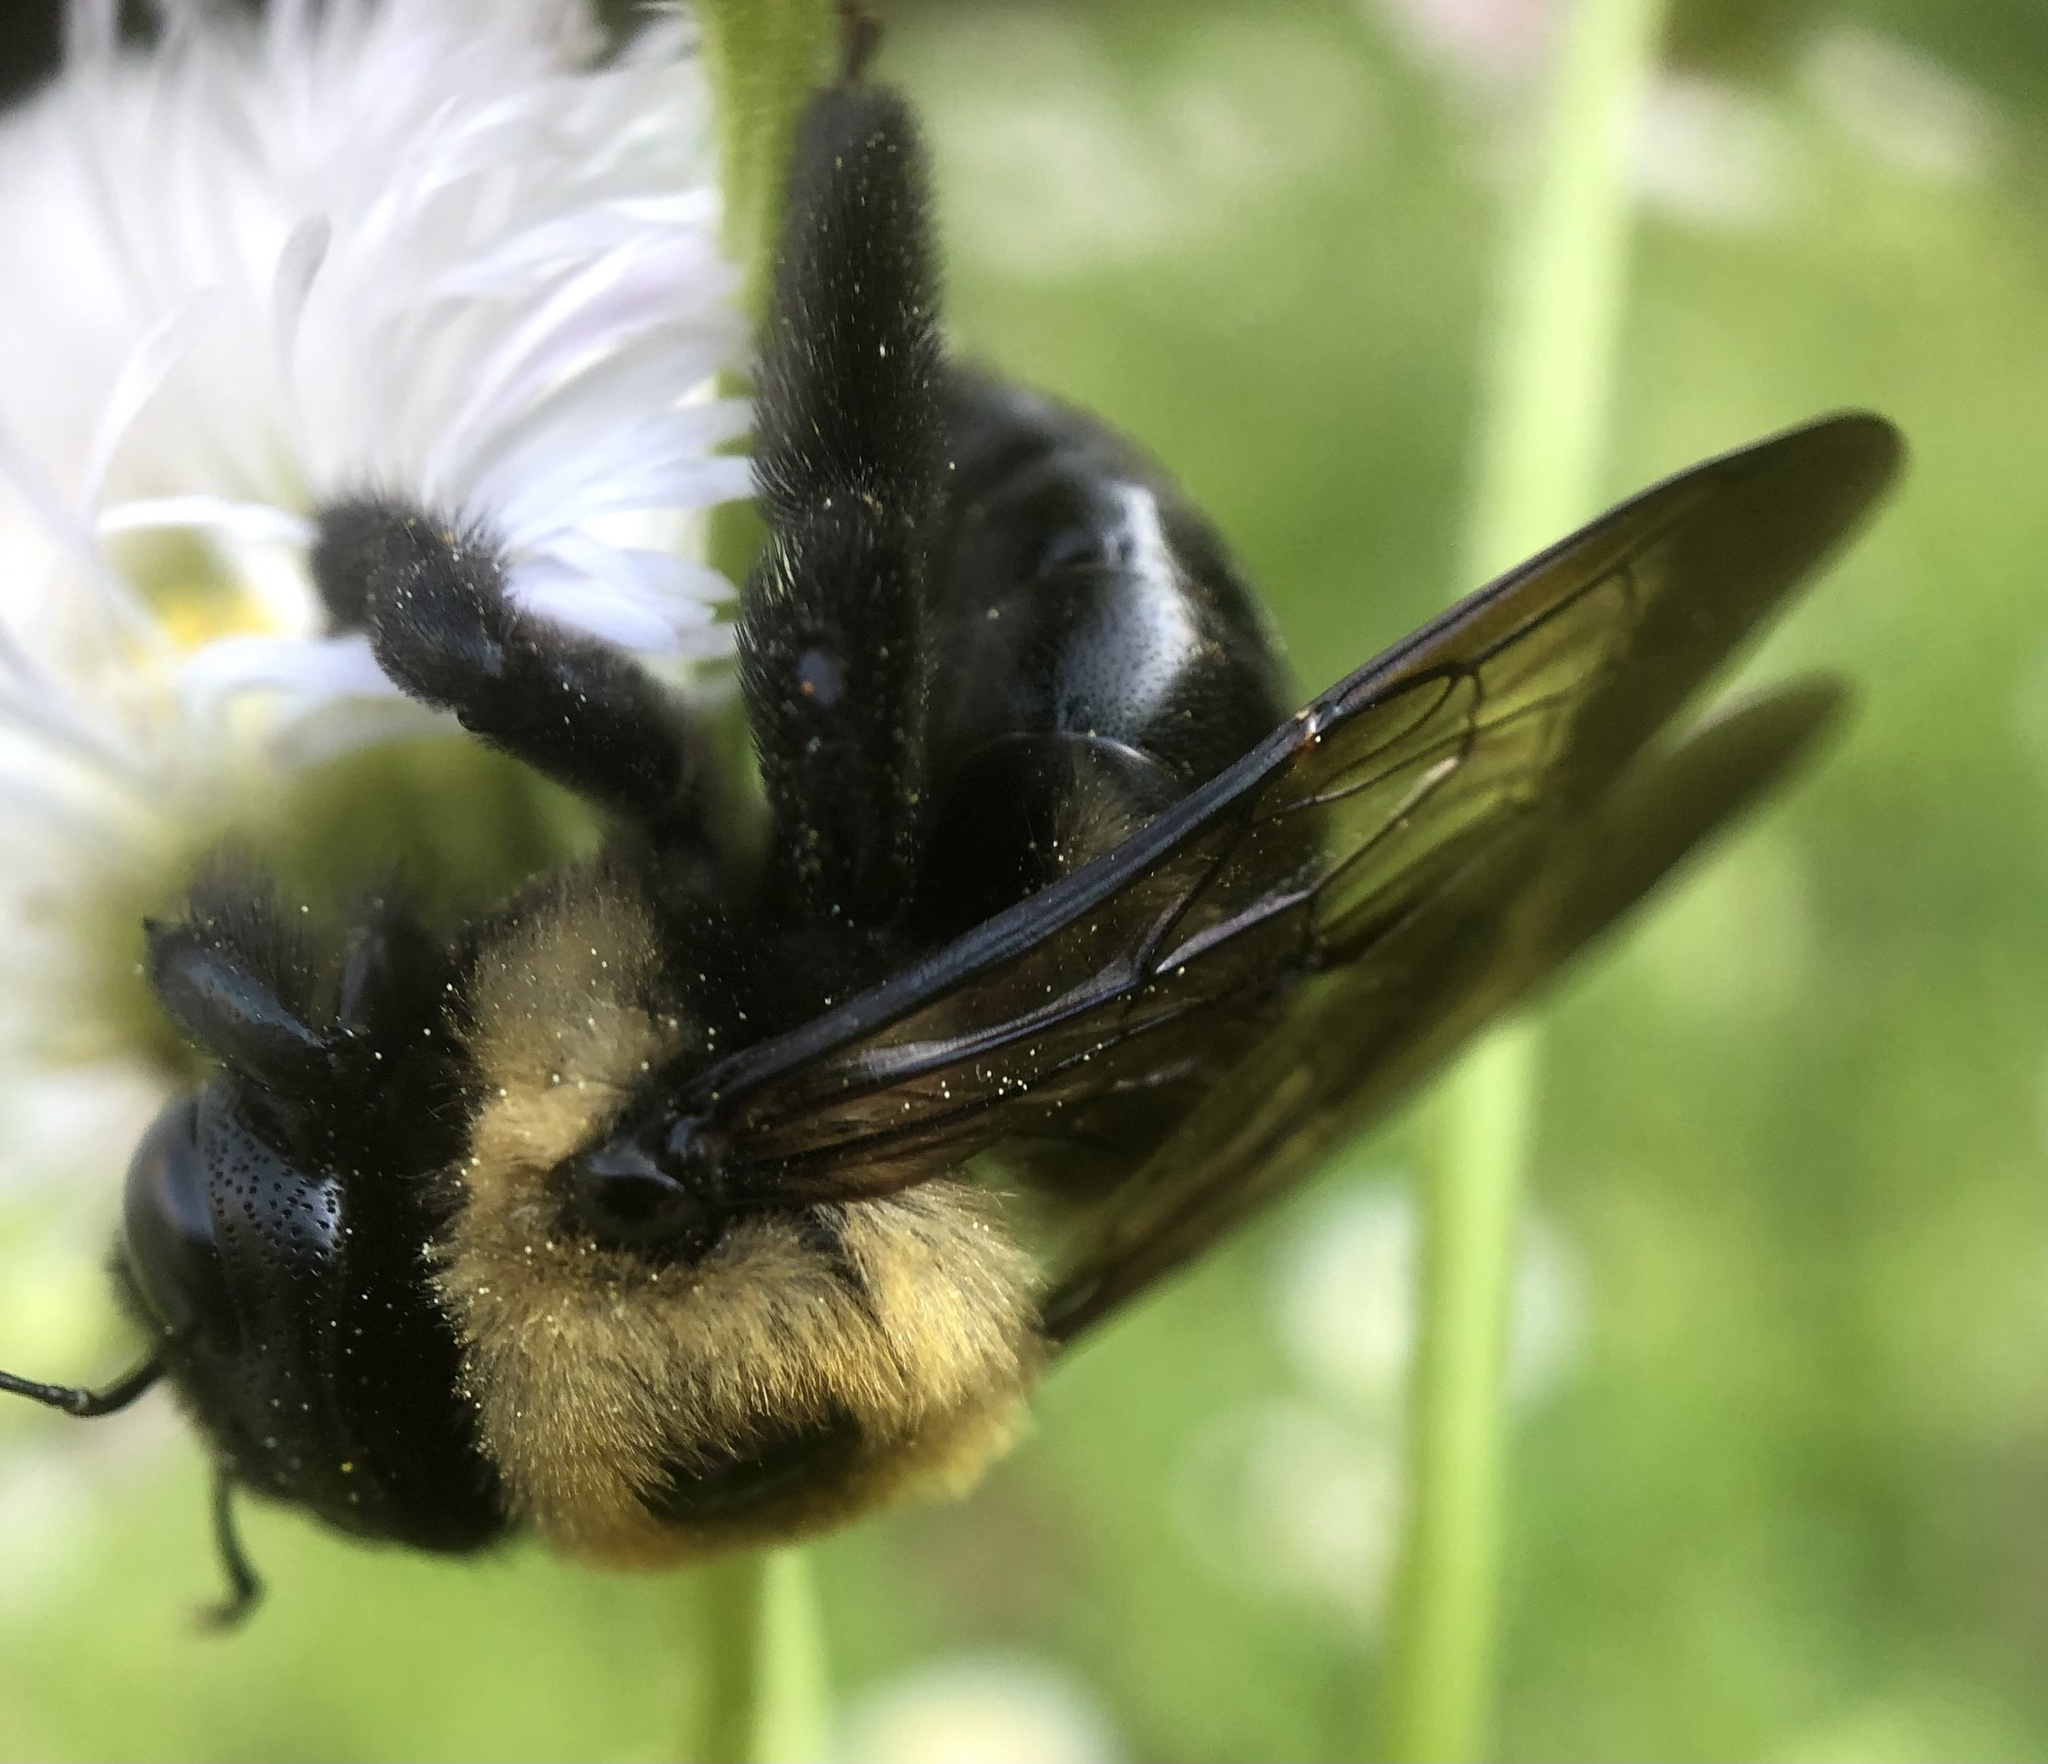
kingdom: Animalia
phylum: Arthropoda
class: Insecta
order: Hymenoptera
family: Apidae
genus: Xylocopa
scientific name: Xylocopa virginica
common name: Carpenter bee
